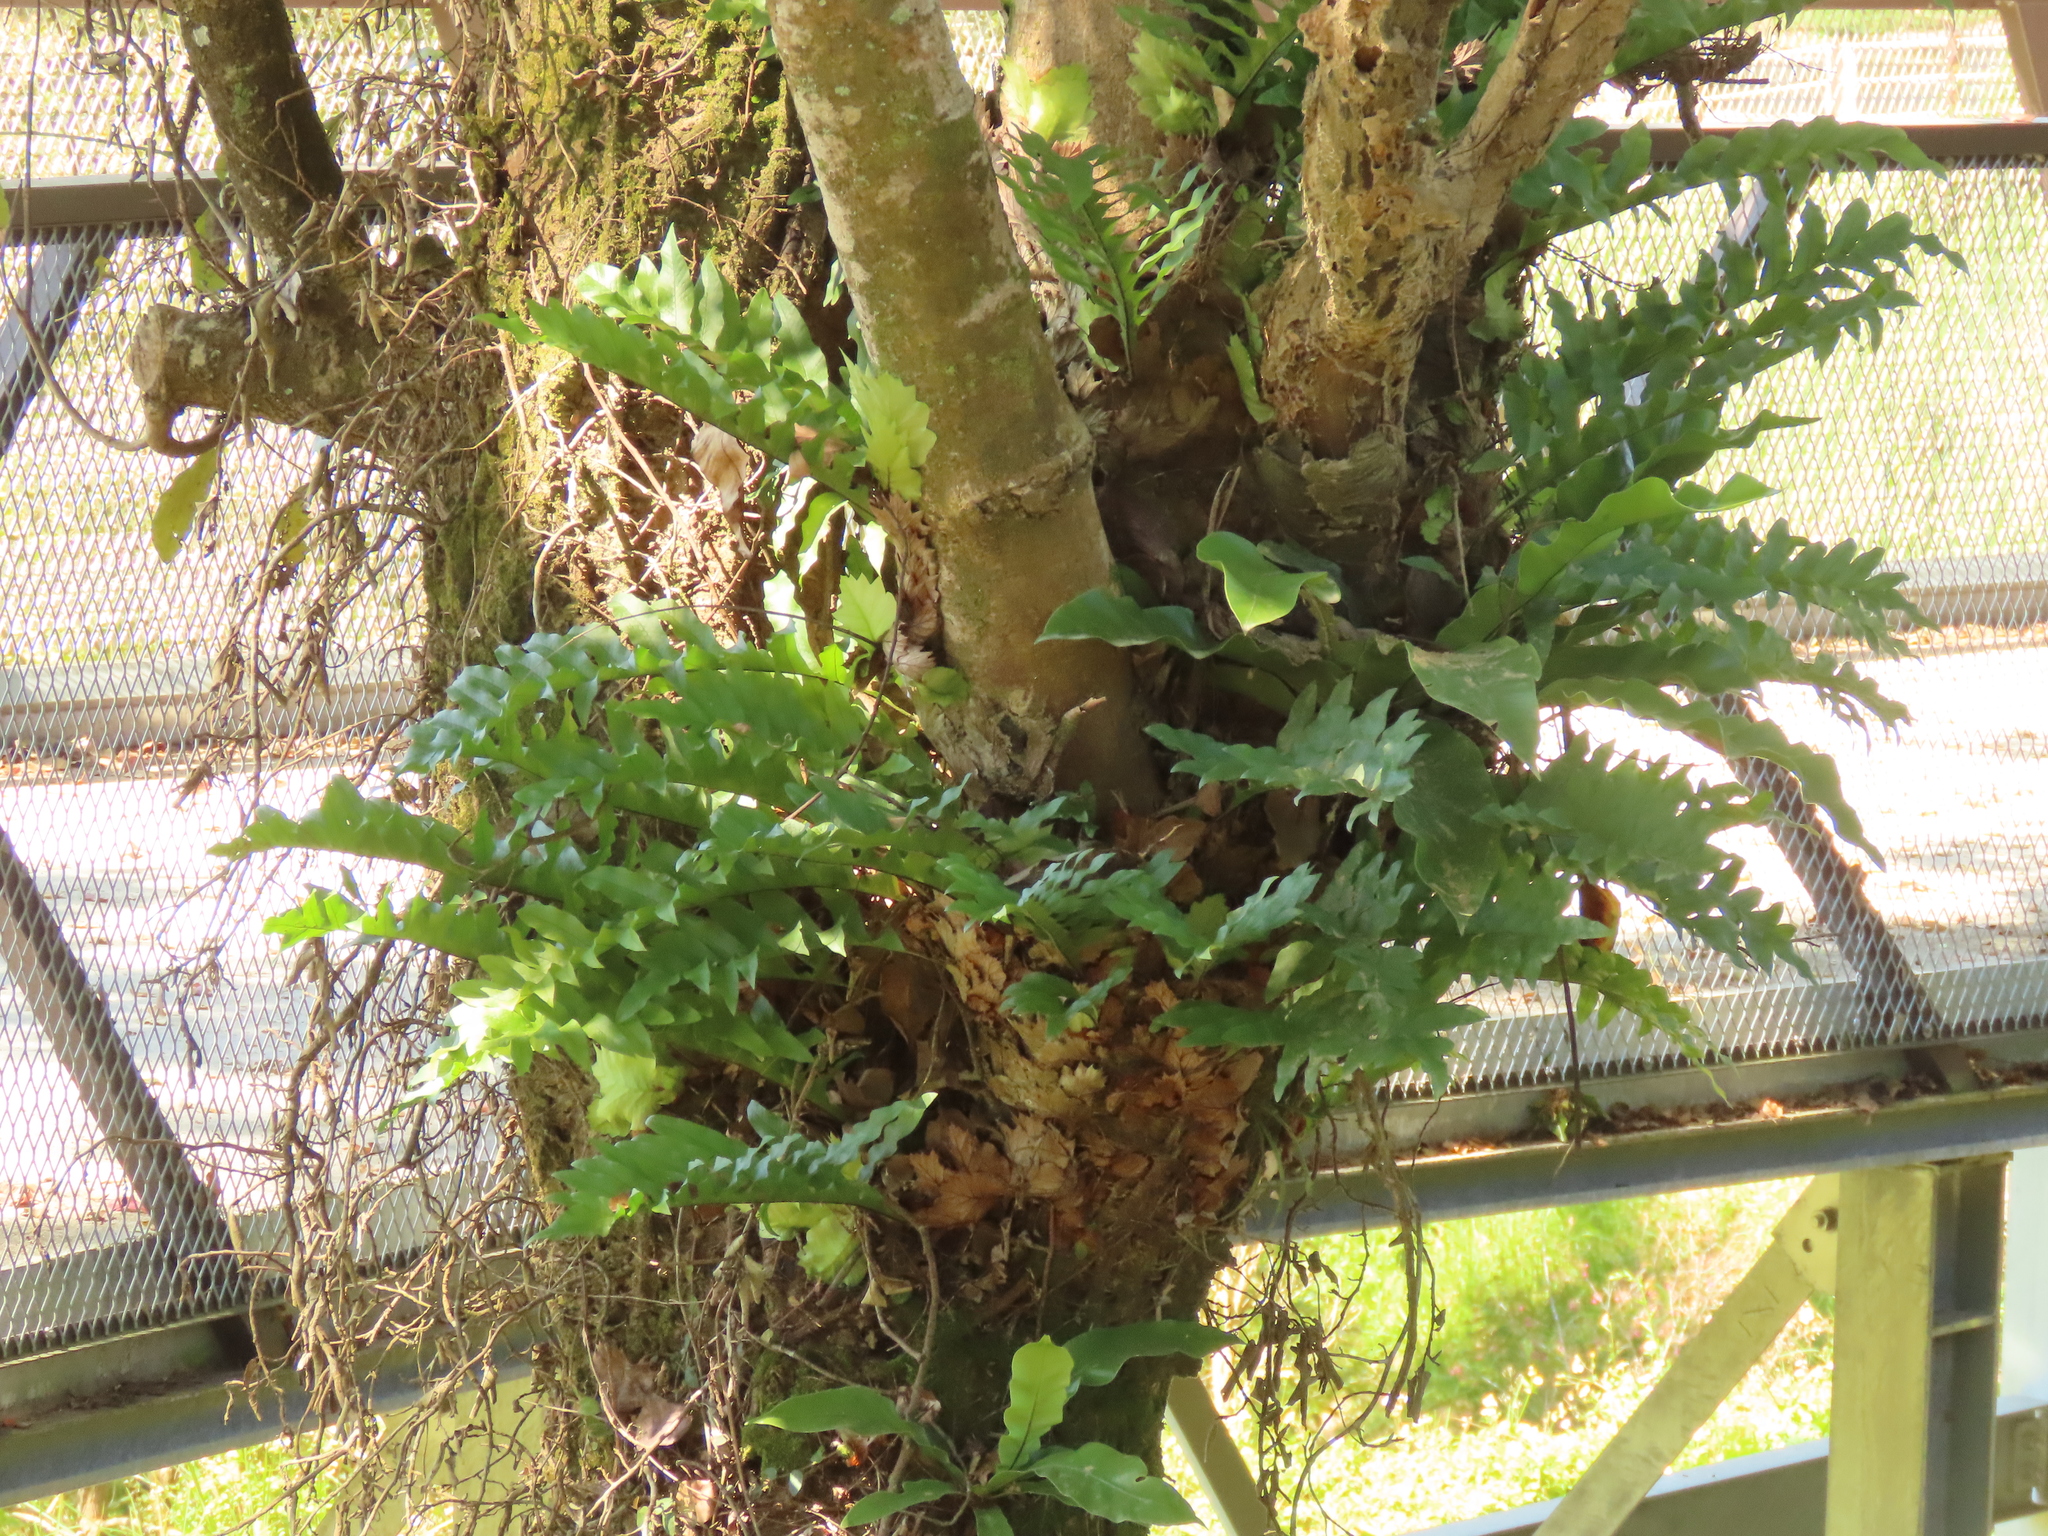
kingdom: Plantae
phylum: Tracheophyta
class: Polypodiopsida
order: Polypodiales
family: Polypodiaceae
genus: Drynaria
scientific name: Drynaria roosii
